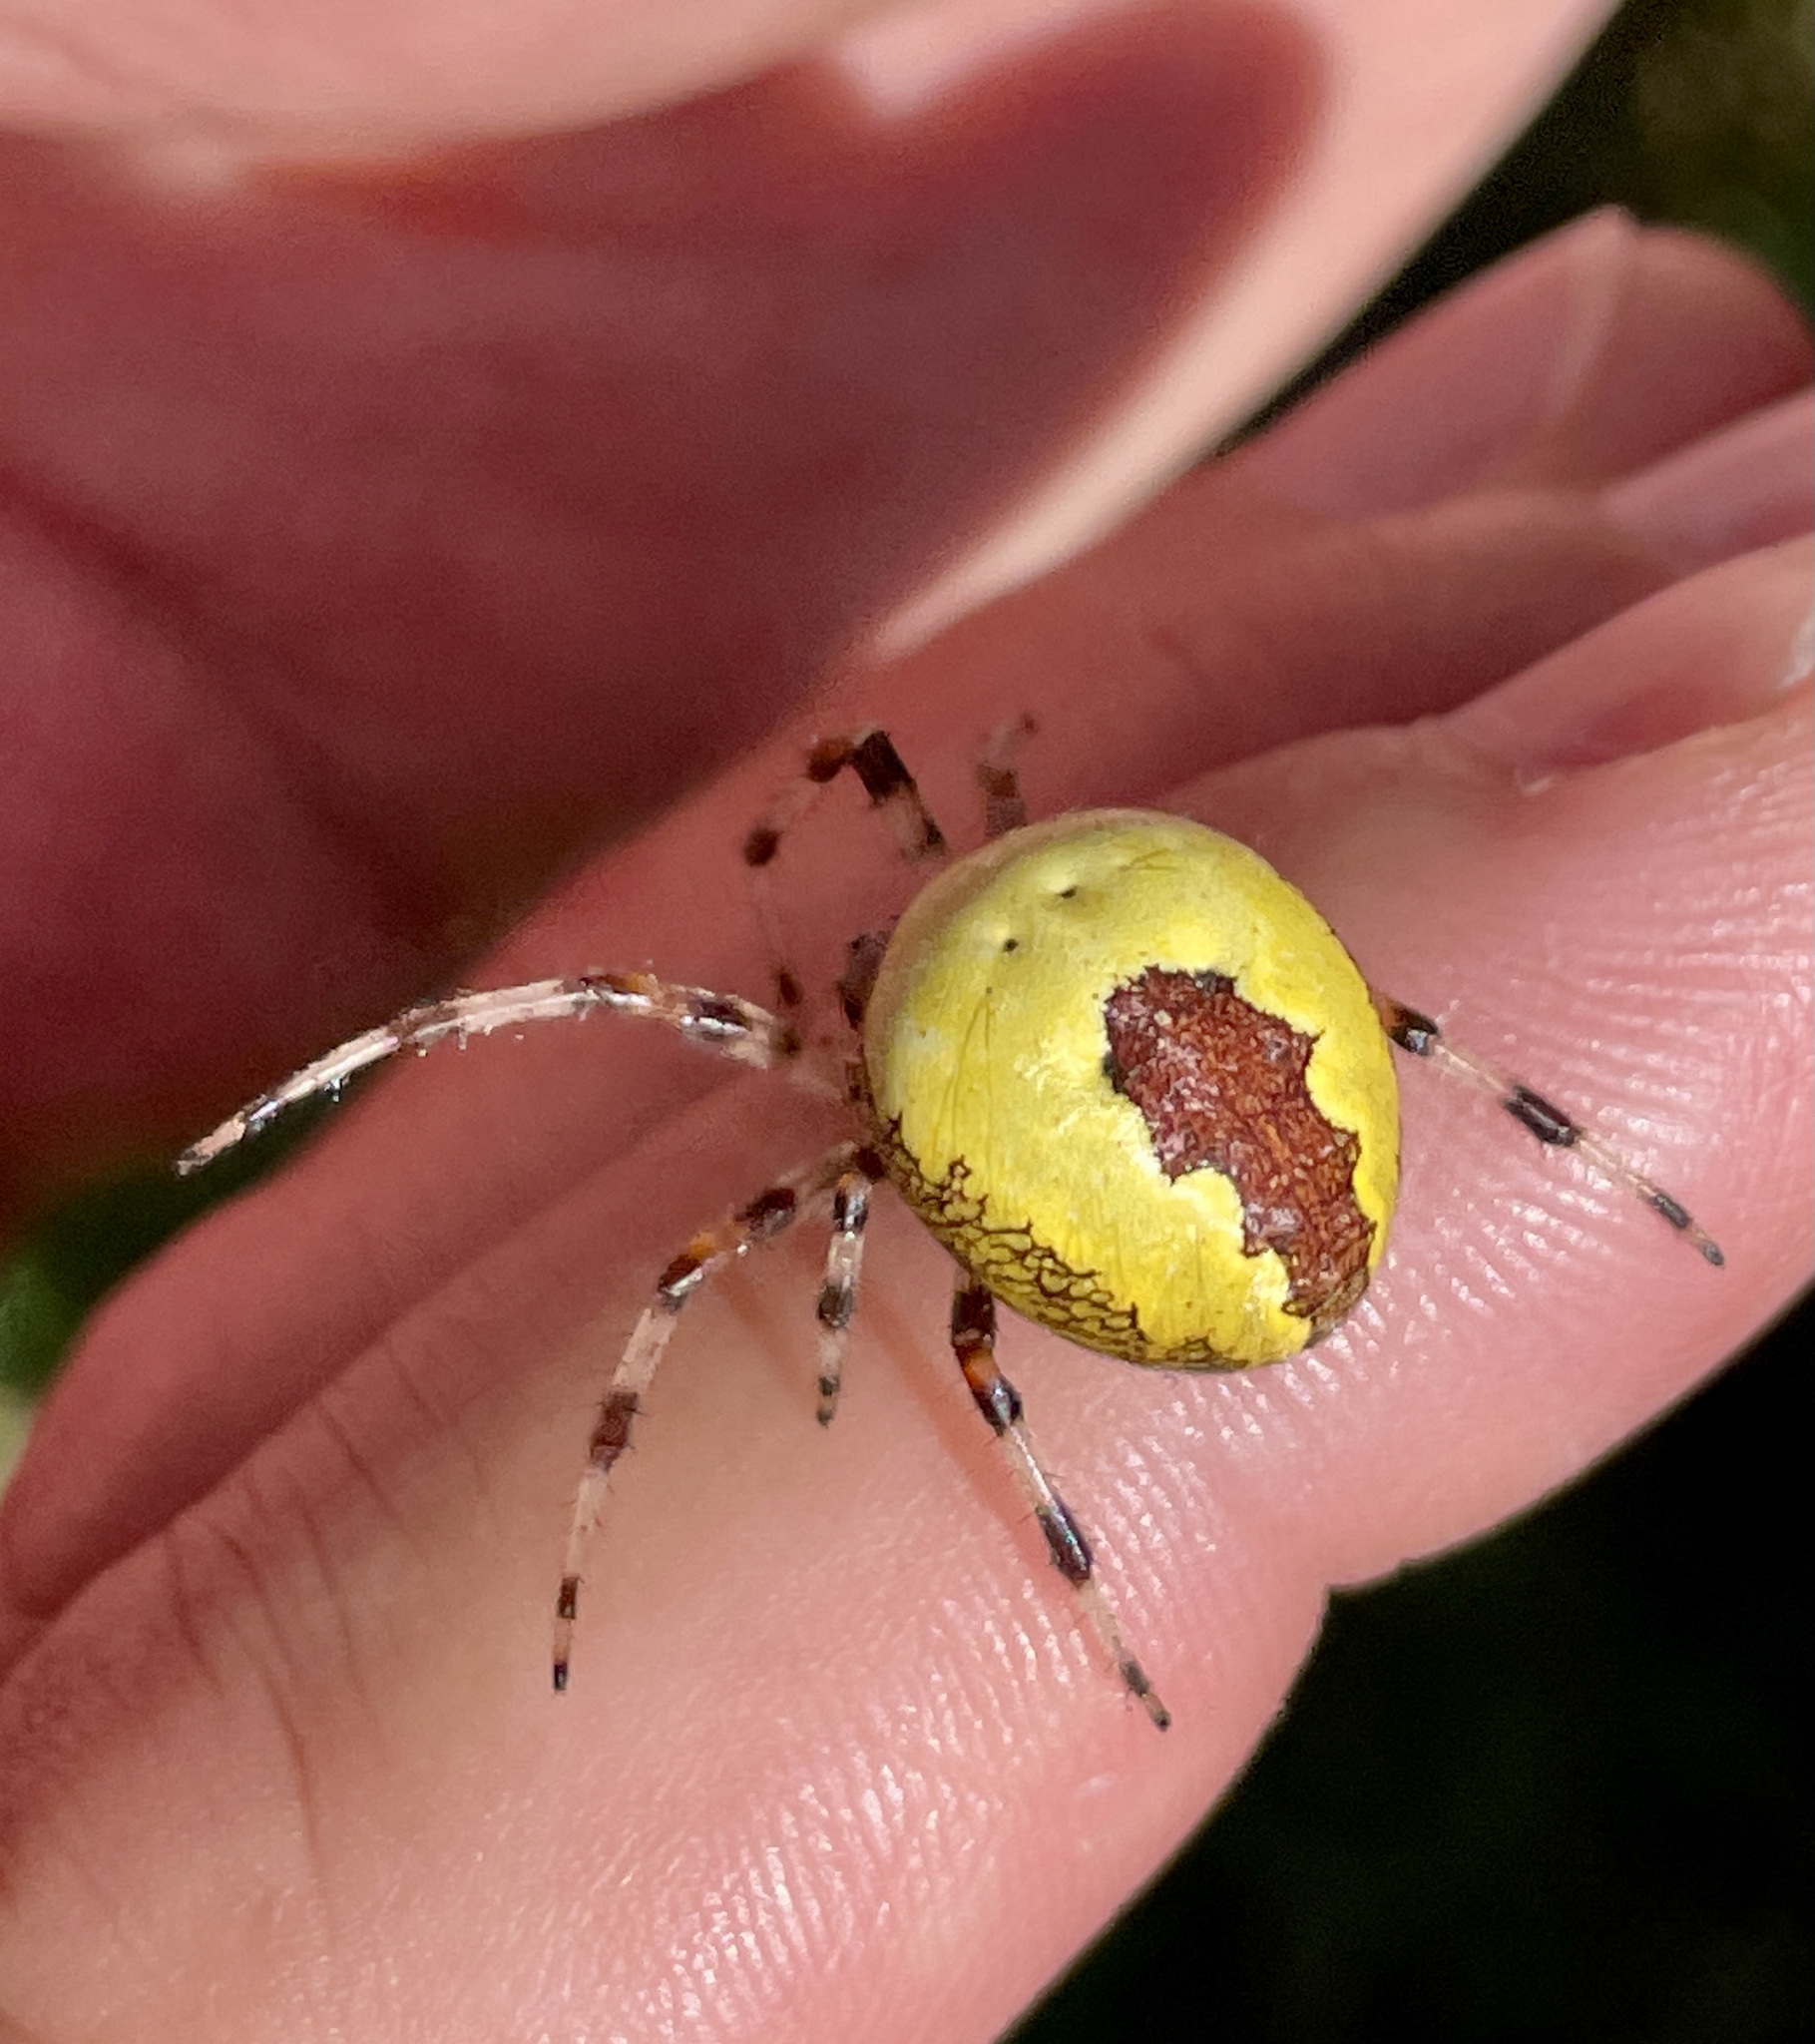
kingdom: Animalia
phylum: Arthropoda
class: Arachnida
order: Araneae
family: Araneidae
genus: Araneus
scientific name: Araneus marmoreus
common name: Marbled orbweaver
